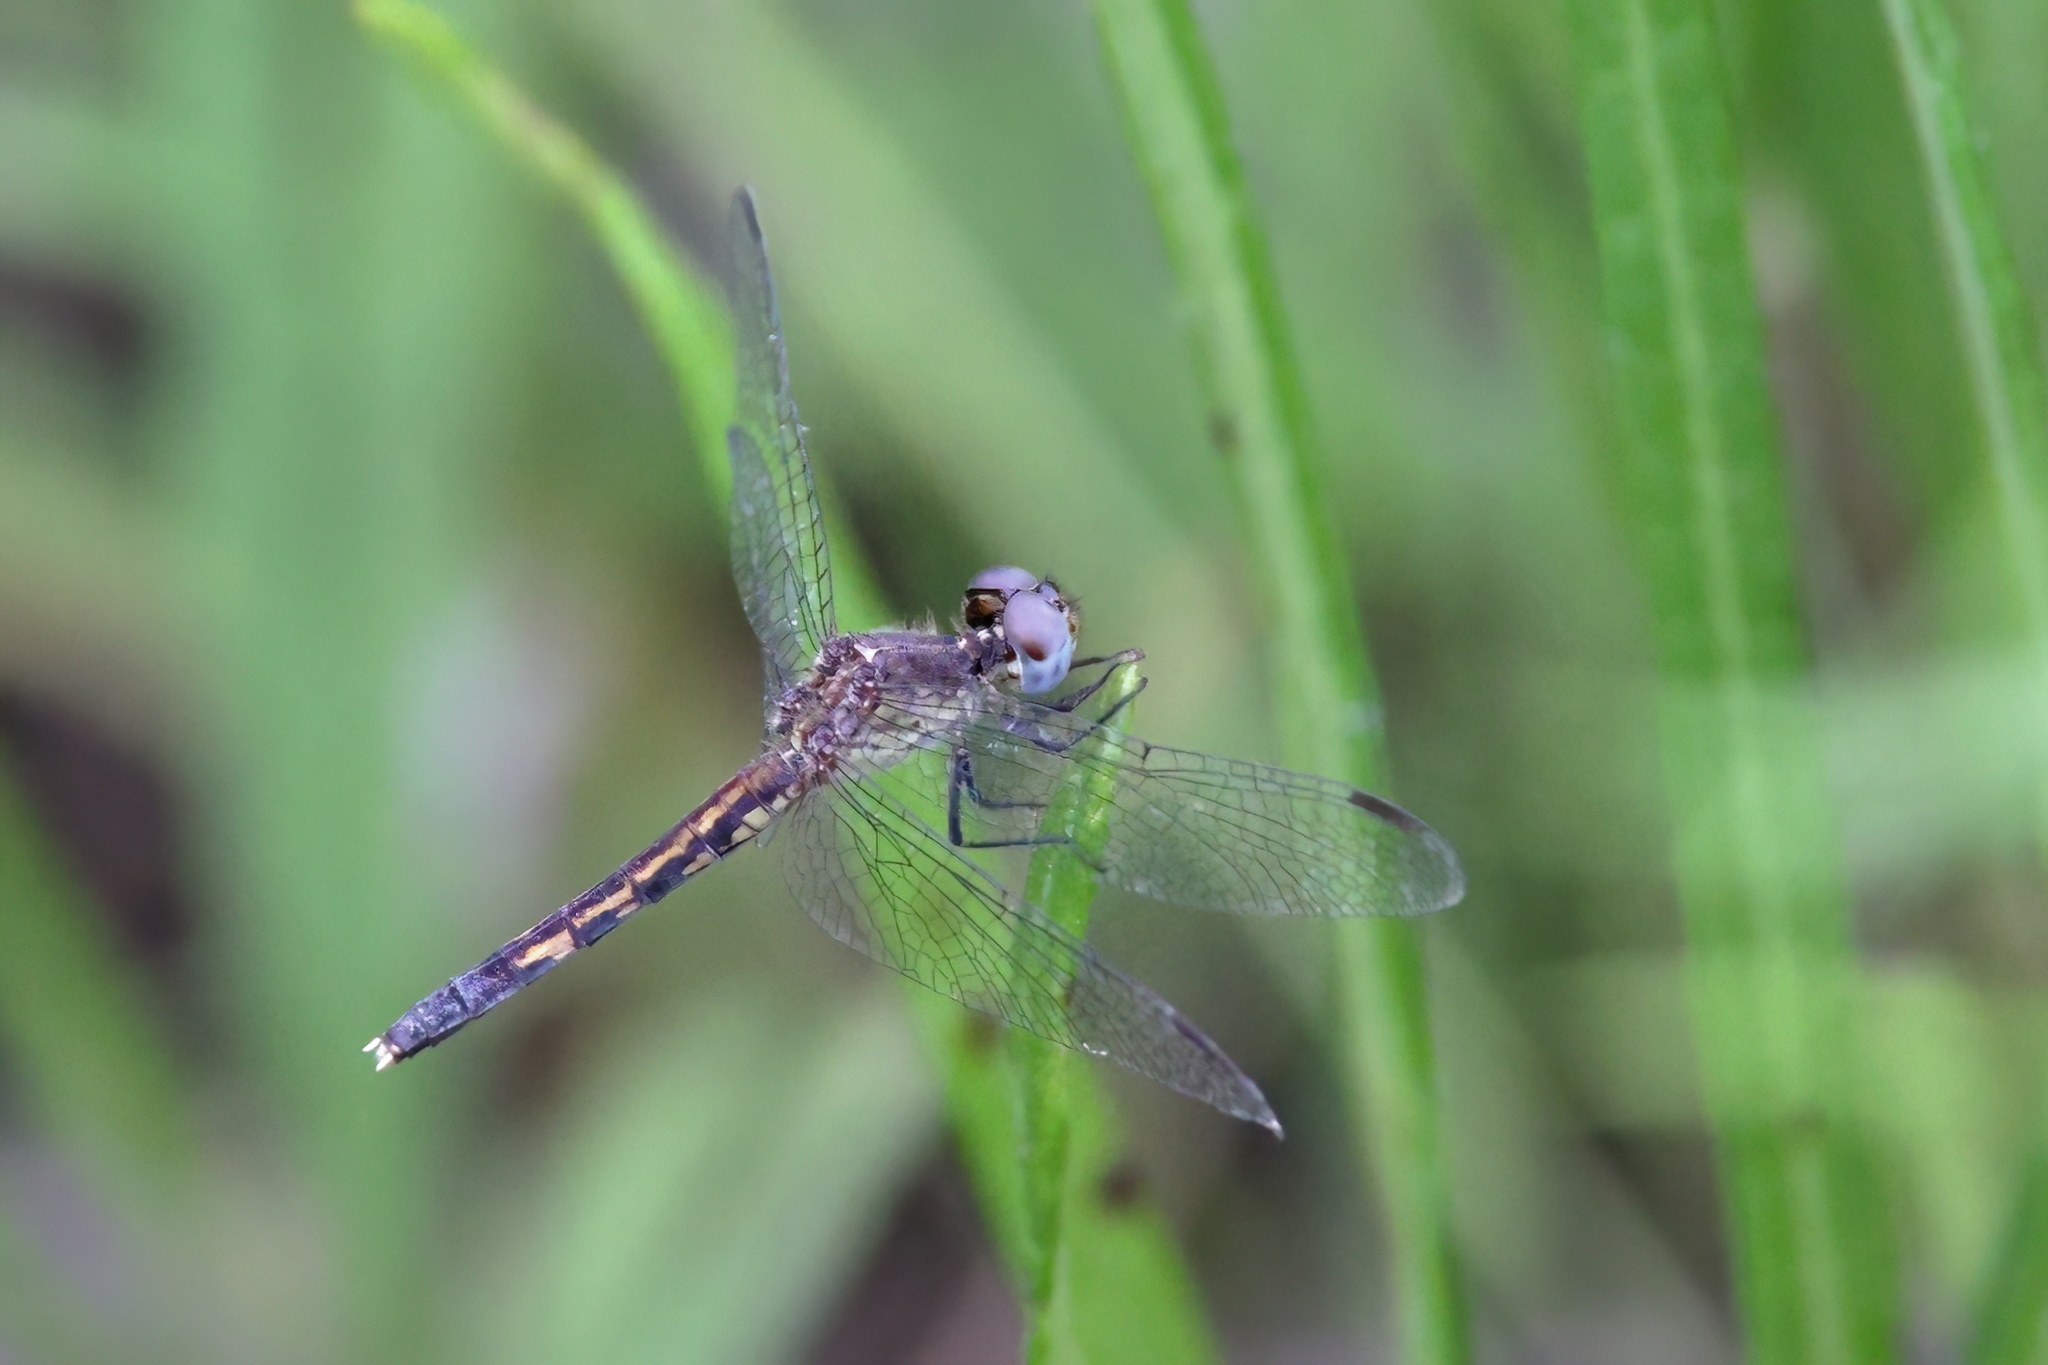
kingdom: Animalia
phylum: Arthropoda
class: Insecta
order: Odonata
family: Libellulidae
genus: Erythrodiplax
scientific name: Erythrodiplax minuscula
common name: Little blue dragonlet
